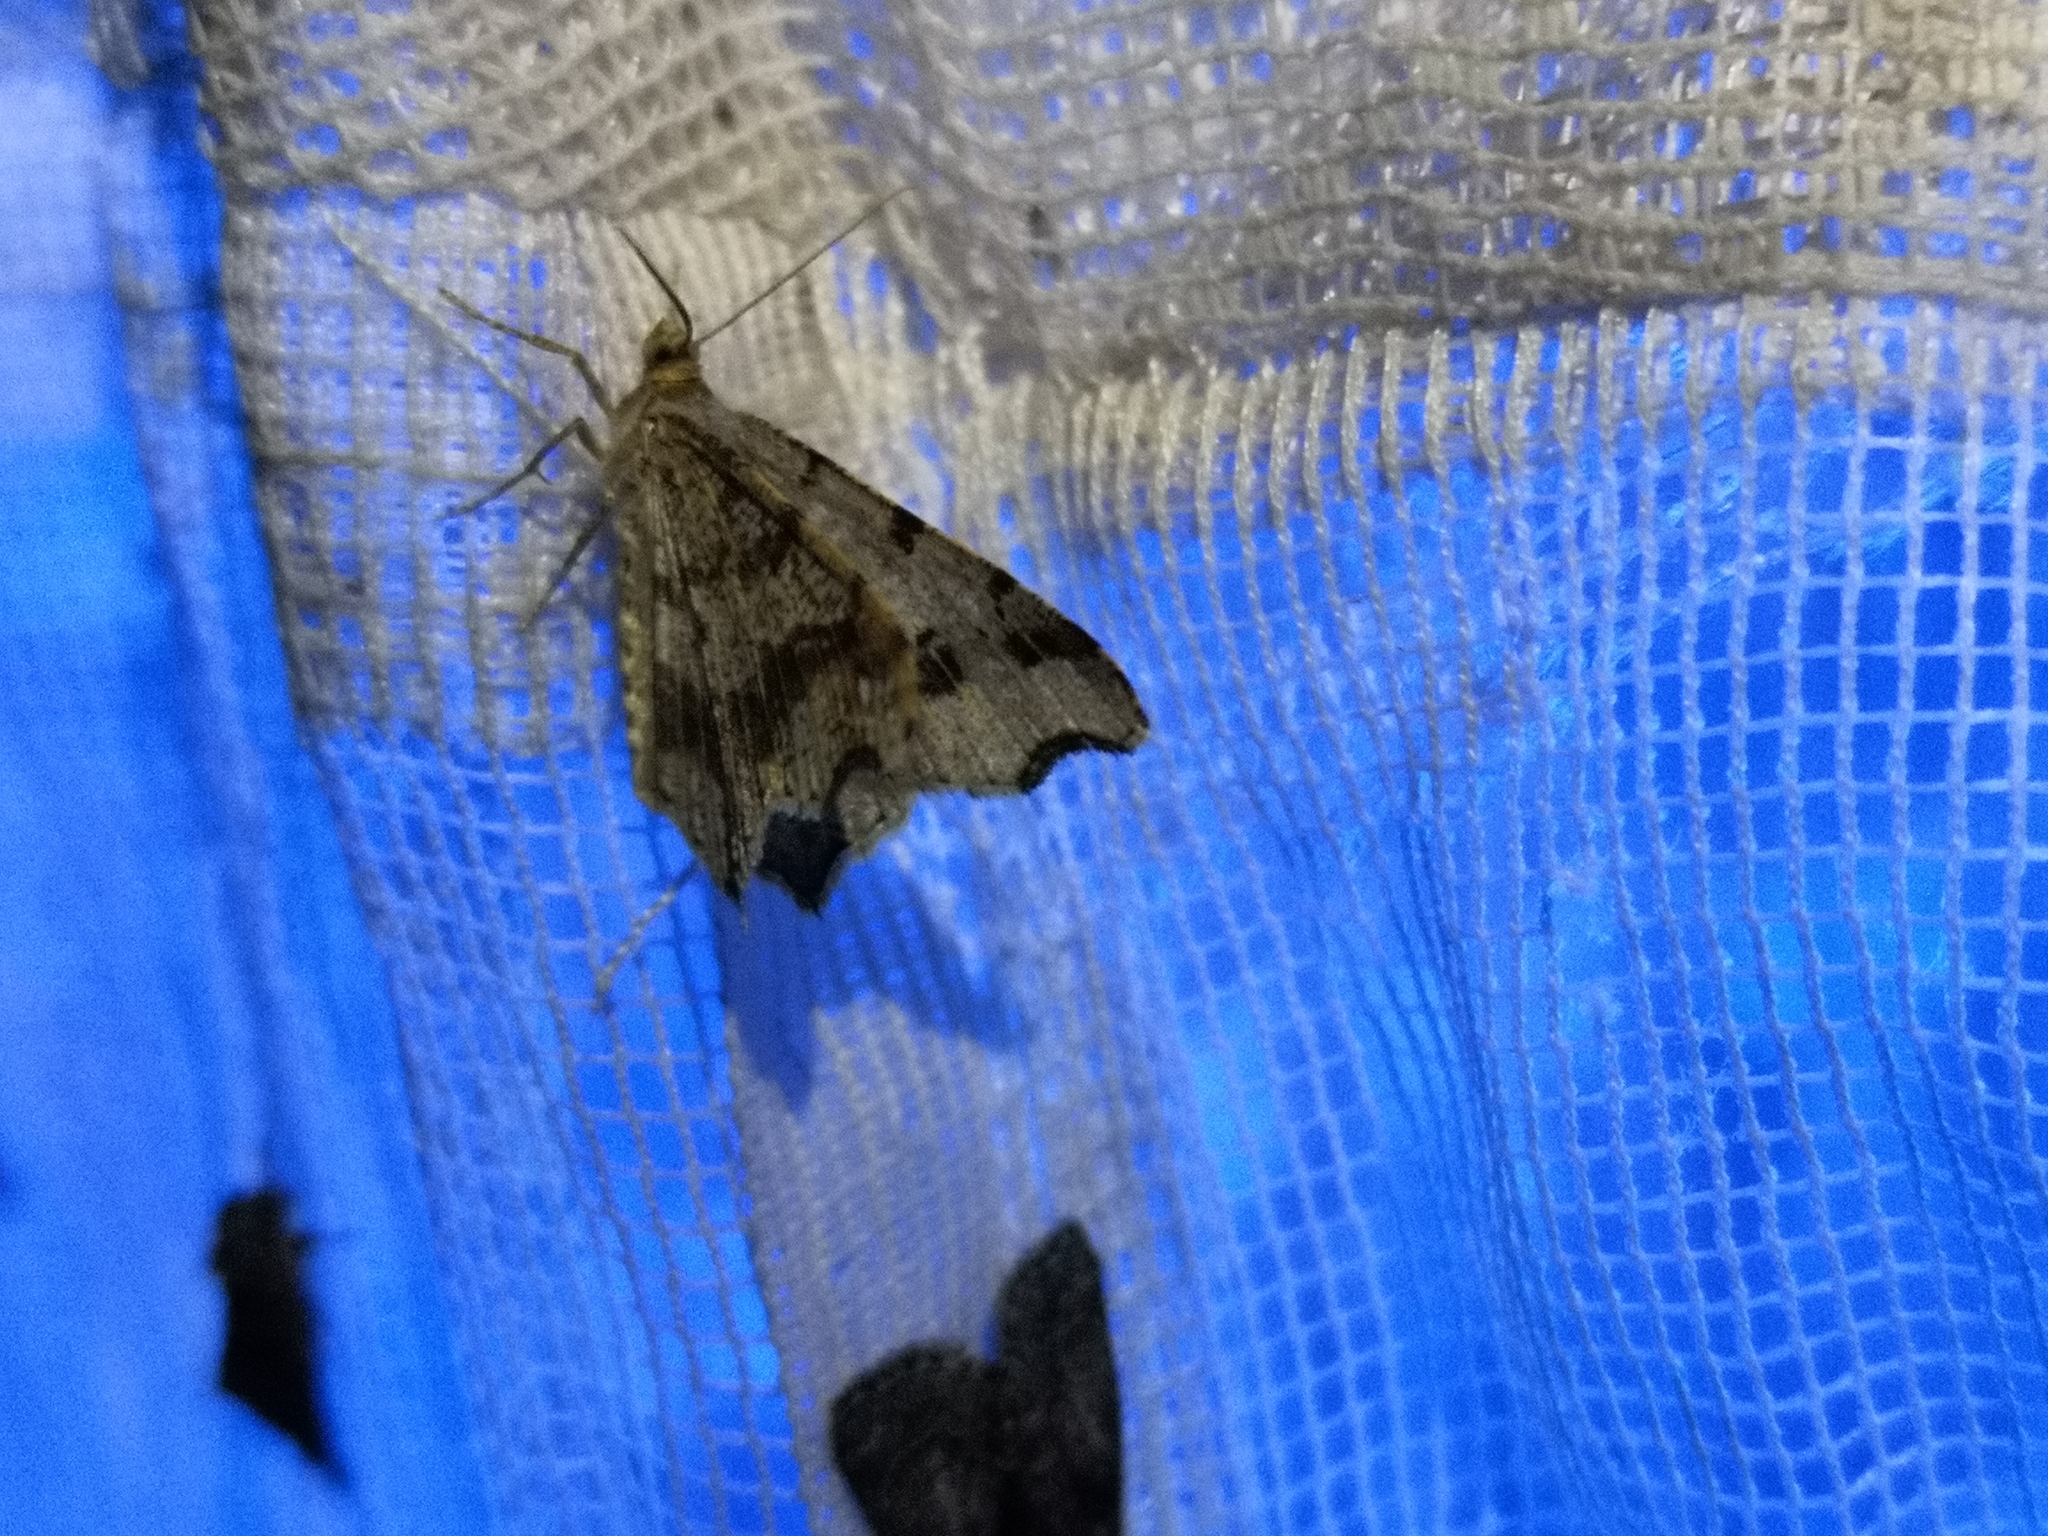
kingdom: Animalia
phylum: Arthropoda
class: Insecta
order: Lepidoptera
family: Geometridae
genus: Macaria
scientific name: Macaria alternata
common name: Sharp-angled peacock
